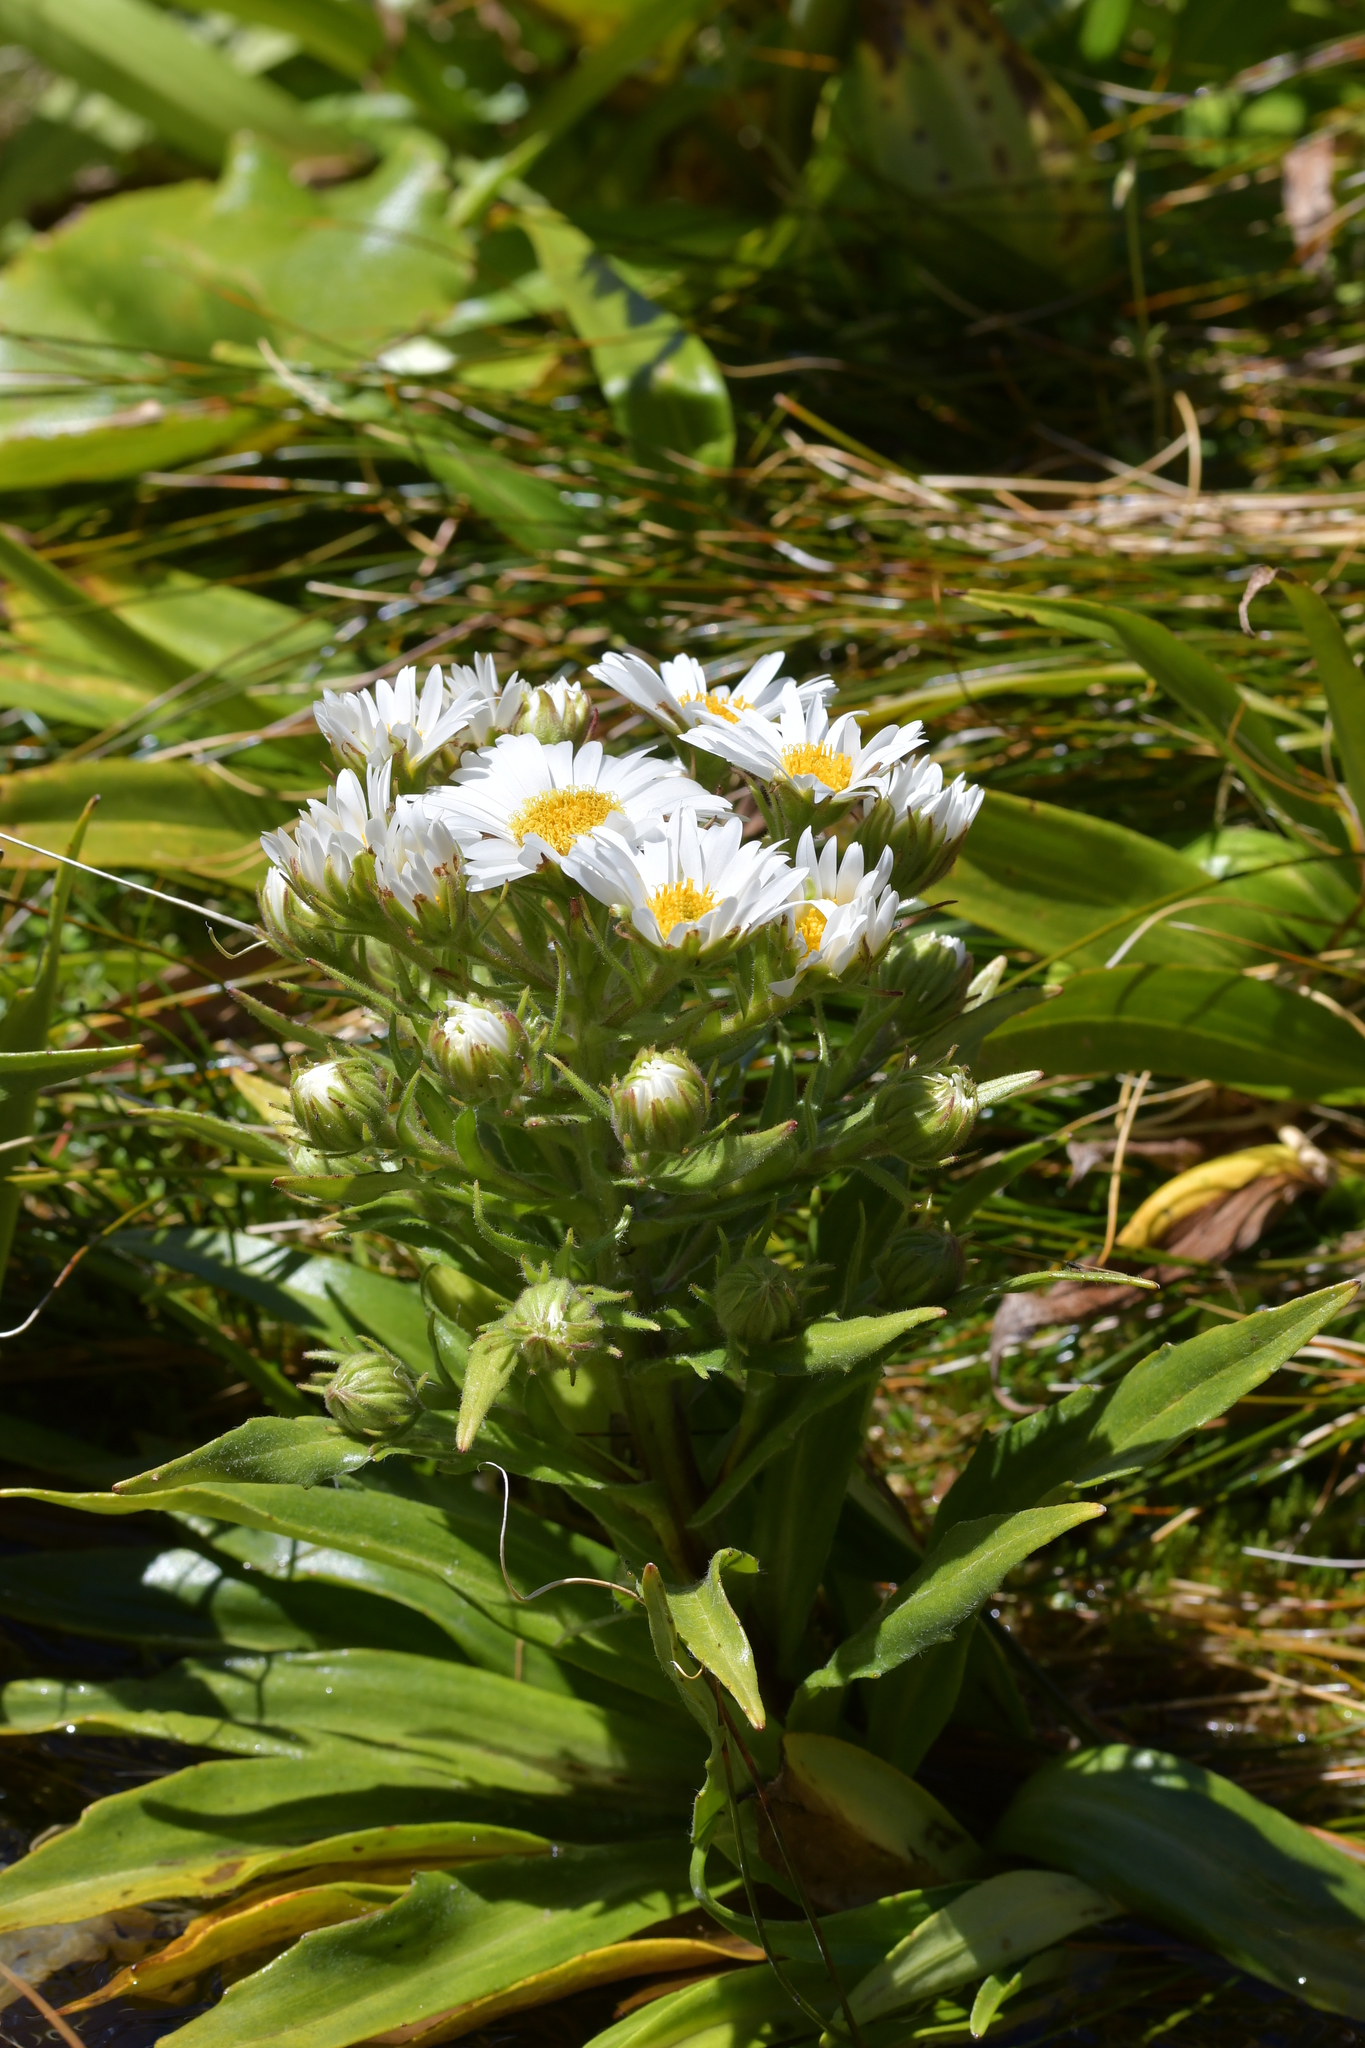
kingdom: Plantae
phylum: Tracheophyta
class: Magnoliopsida
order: Asterales
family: Asteraceae
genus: Dolichoglottis
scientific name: Dolichoglottis scorzoneroides
